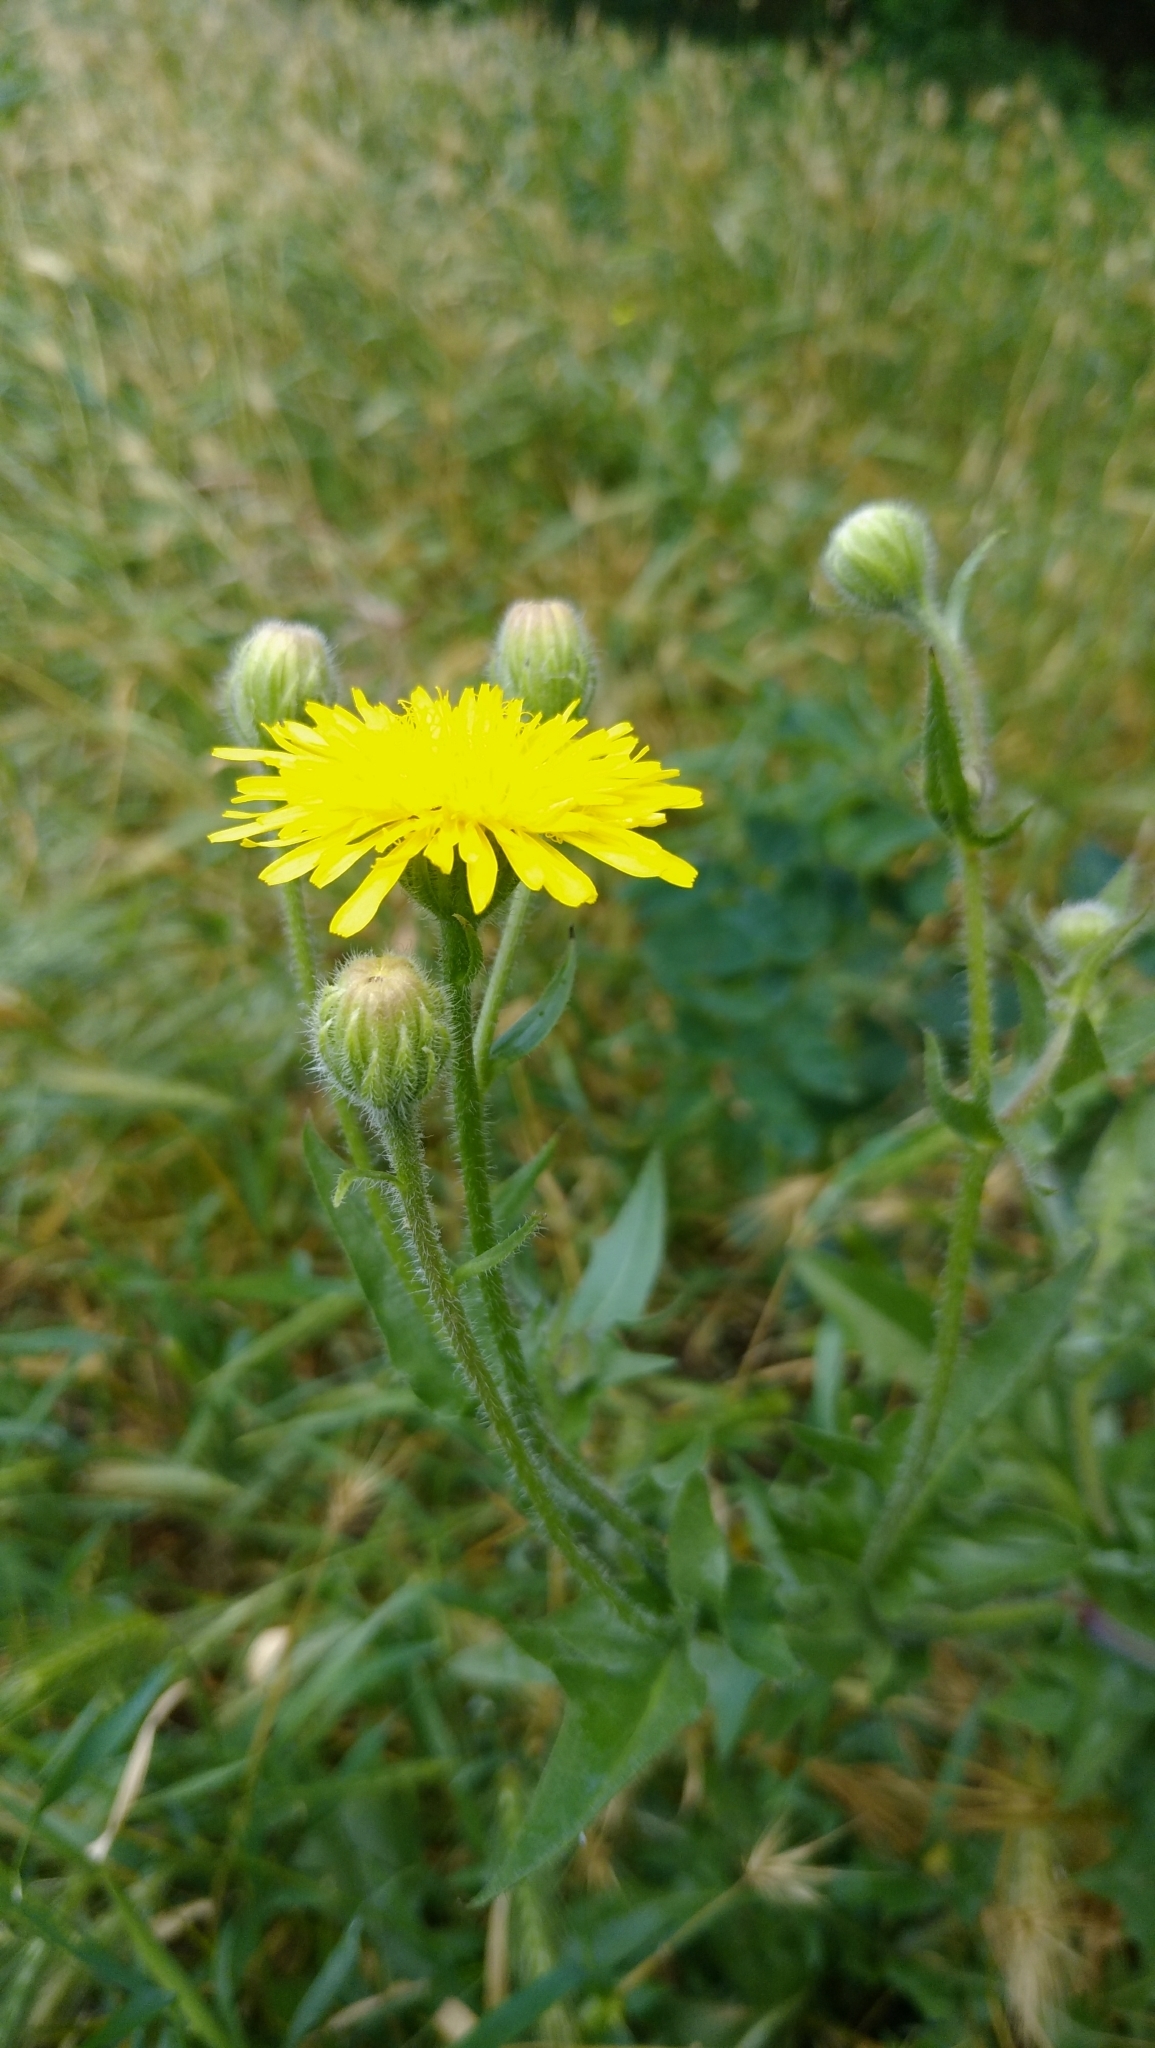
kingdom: Plantae
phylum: Tracheophyta
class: Magnoliopsida
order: Asterales
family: Asteraceae
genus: Crepis
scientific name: Crepis foetida
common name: Stinking hawk's-beard
